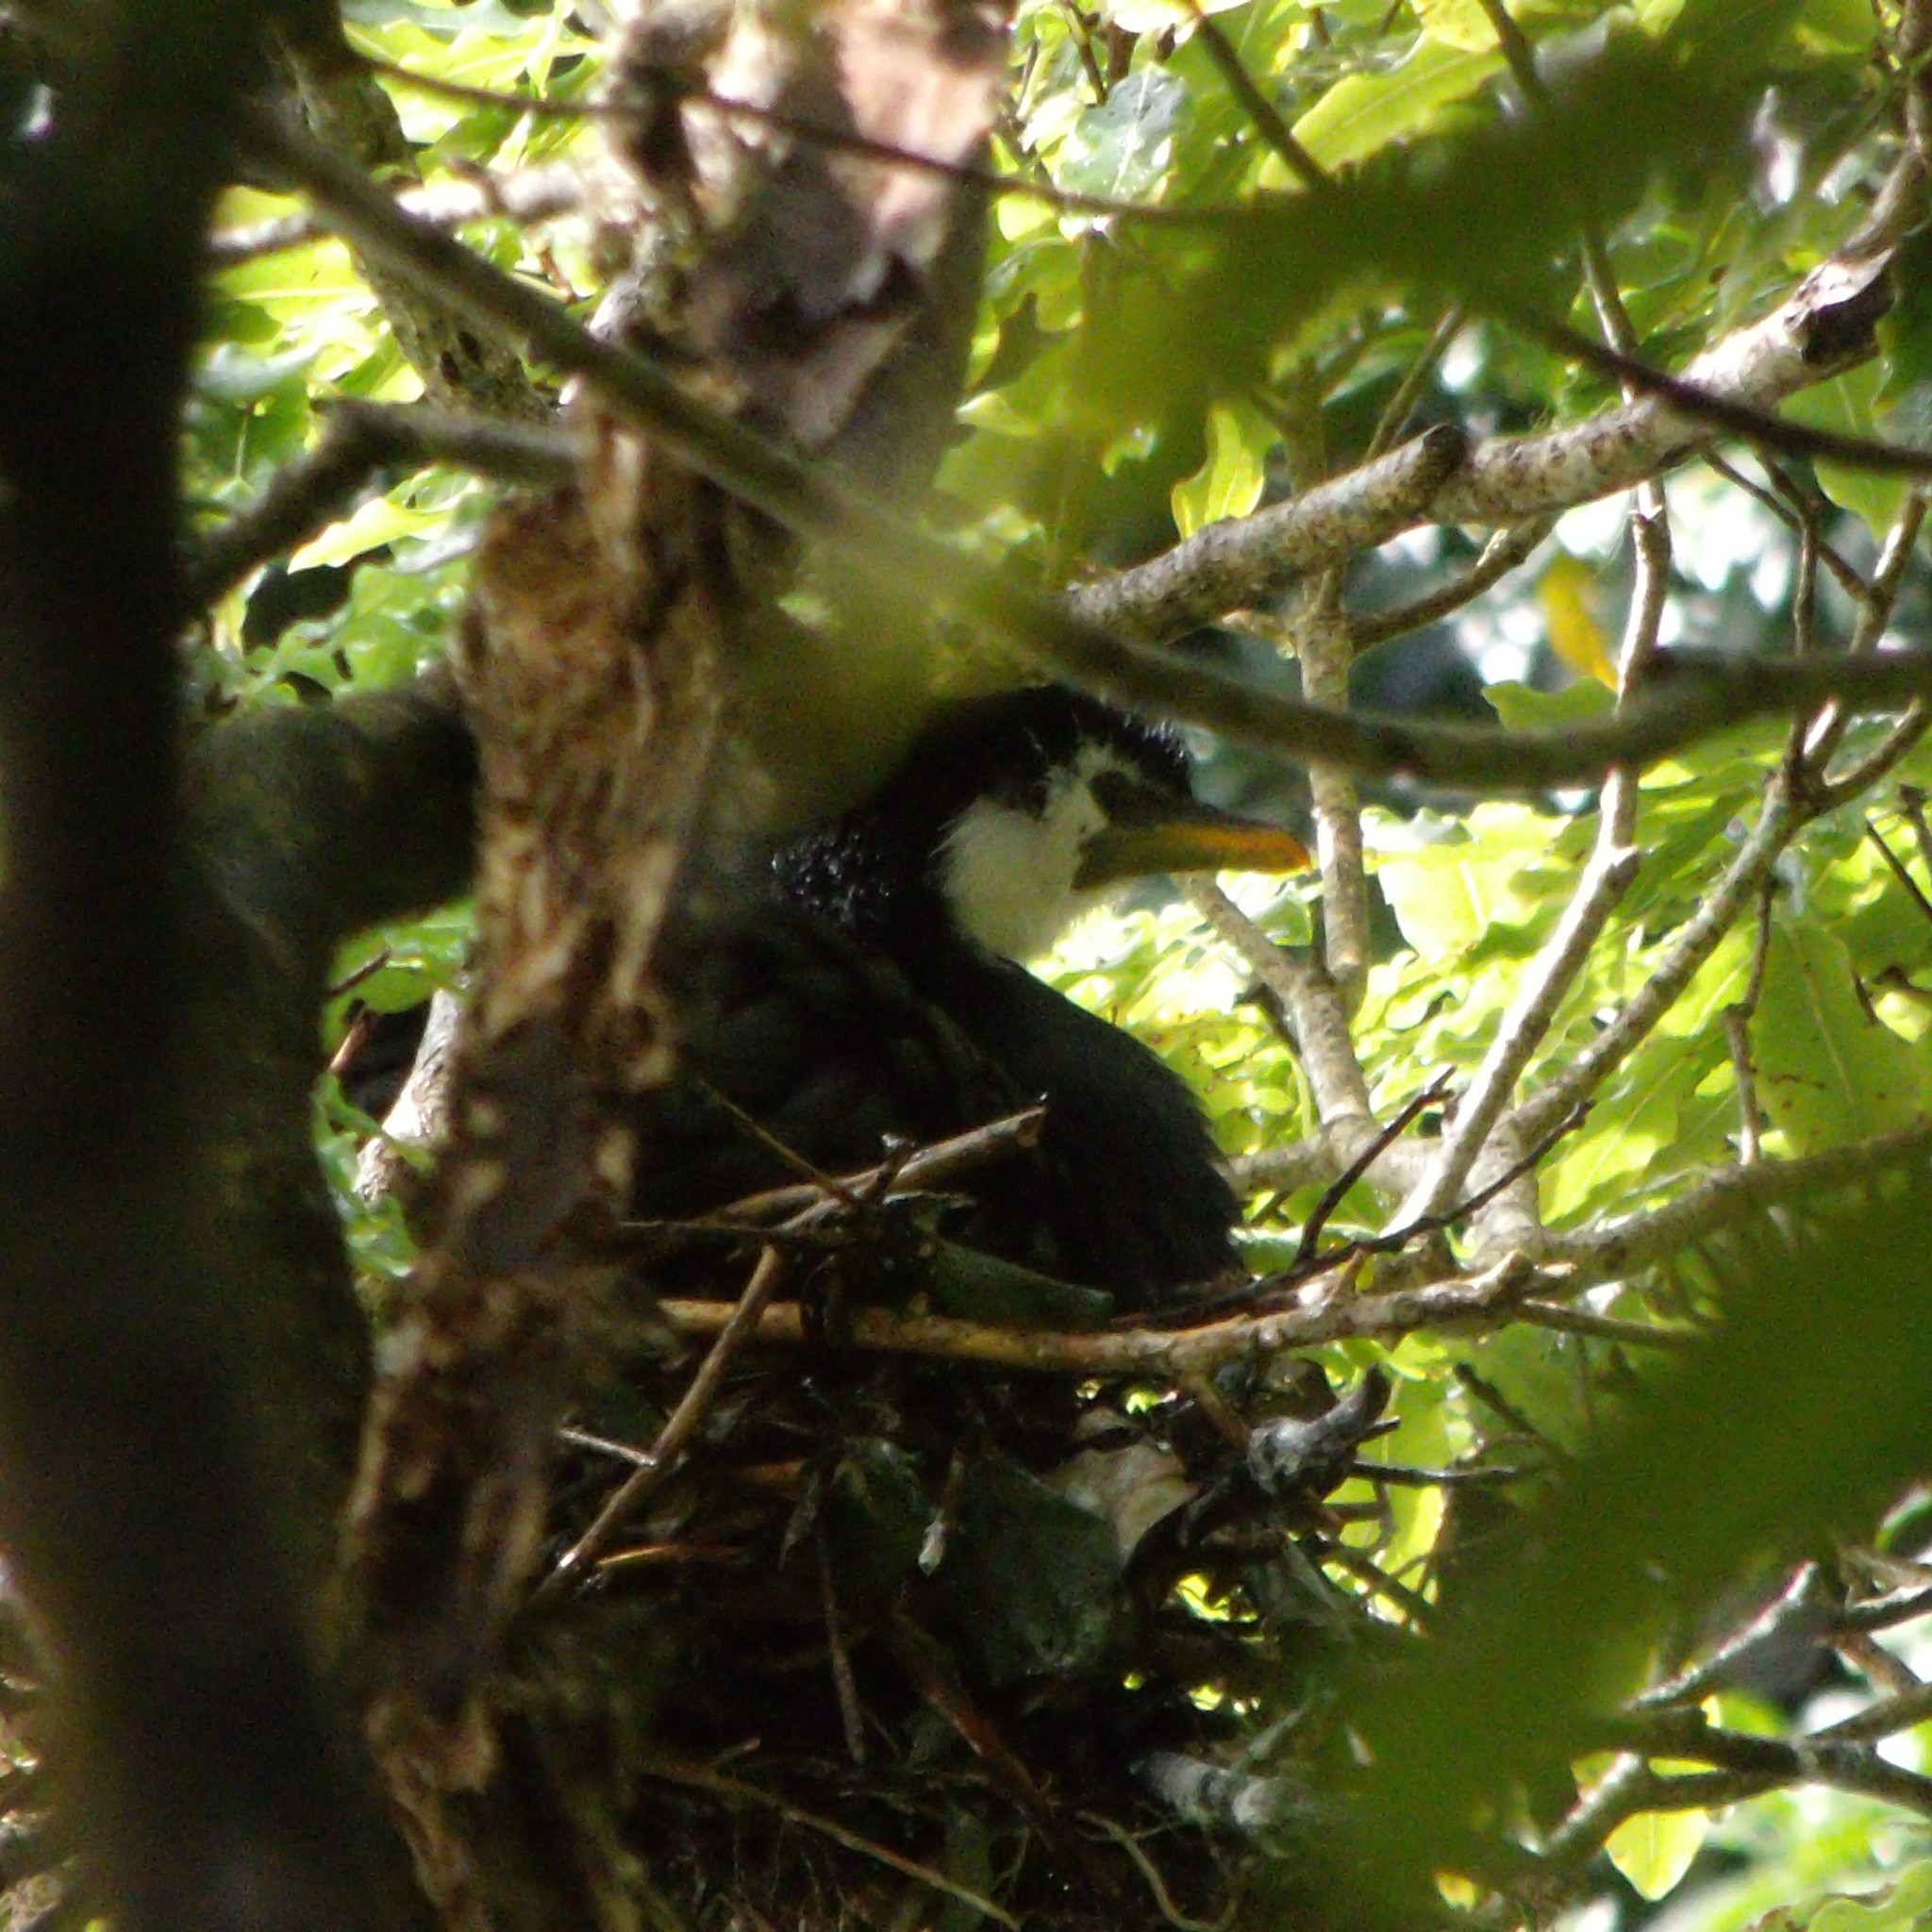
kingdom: Animalia
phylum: Chordata
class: Aves
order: Suliformes
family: Phalacrocoracidae
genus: Microcarbo
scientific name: Microcarbo melanoleucos
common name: Little pied cormorant
